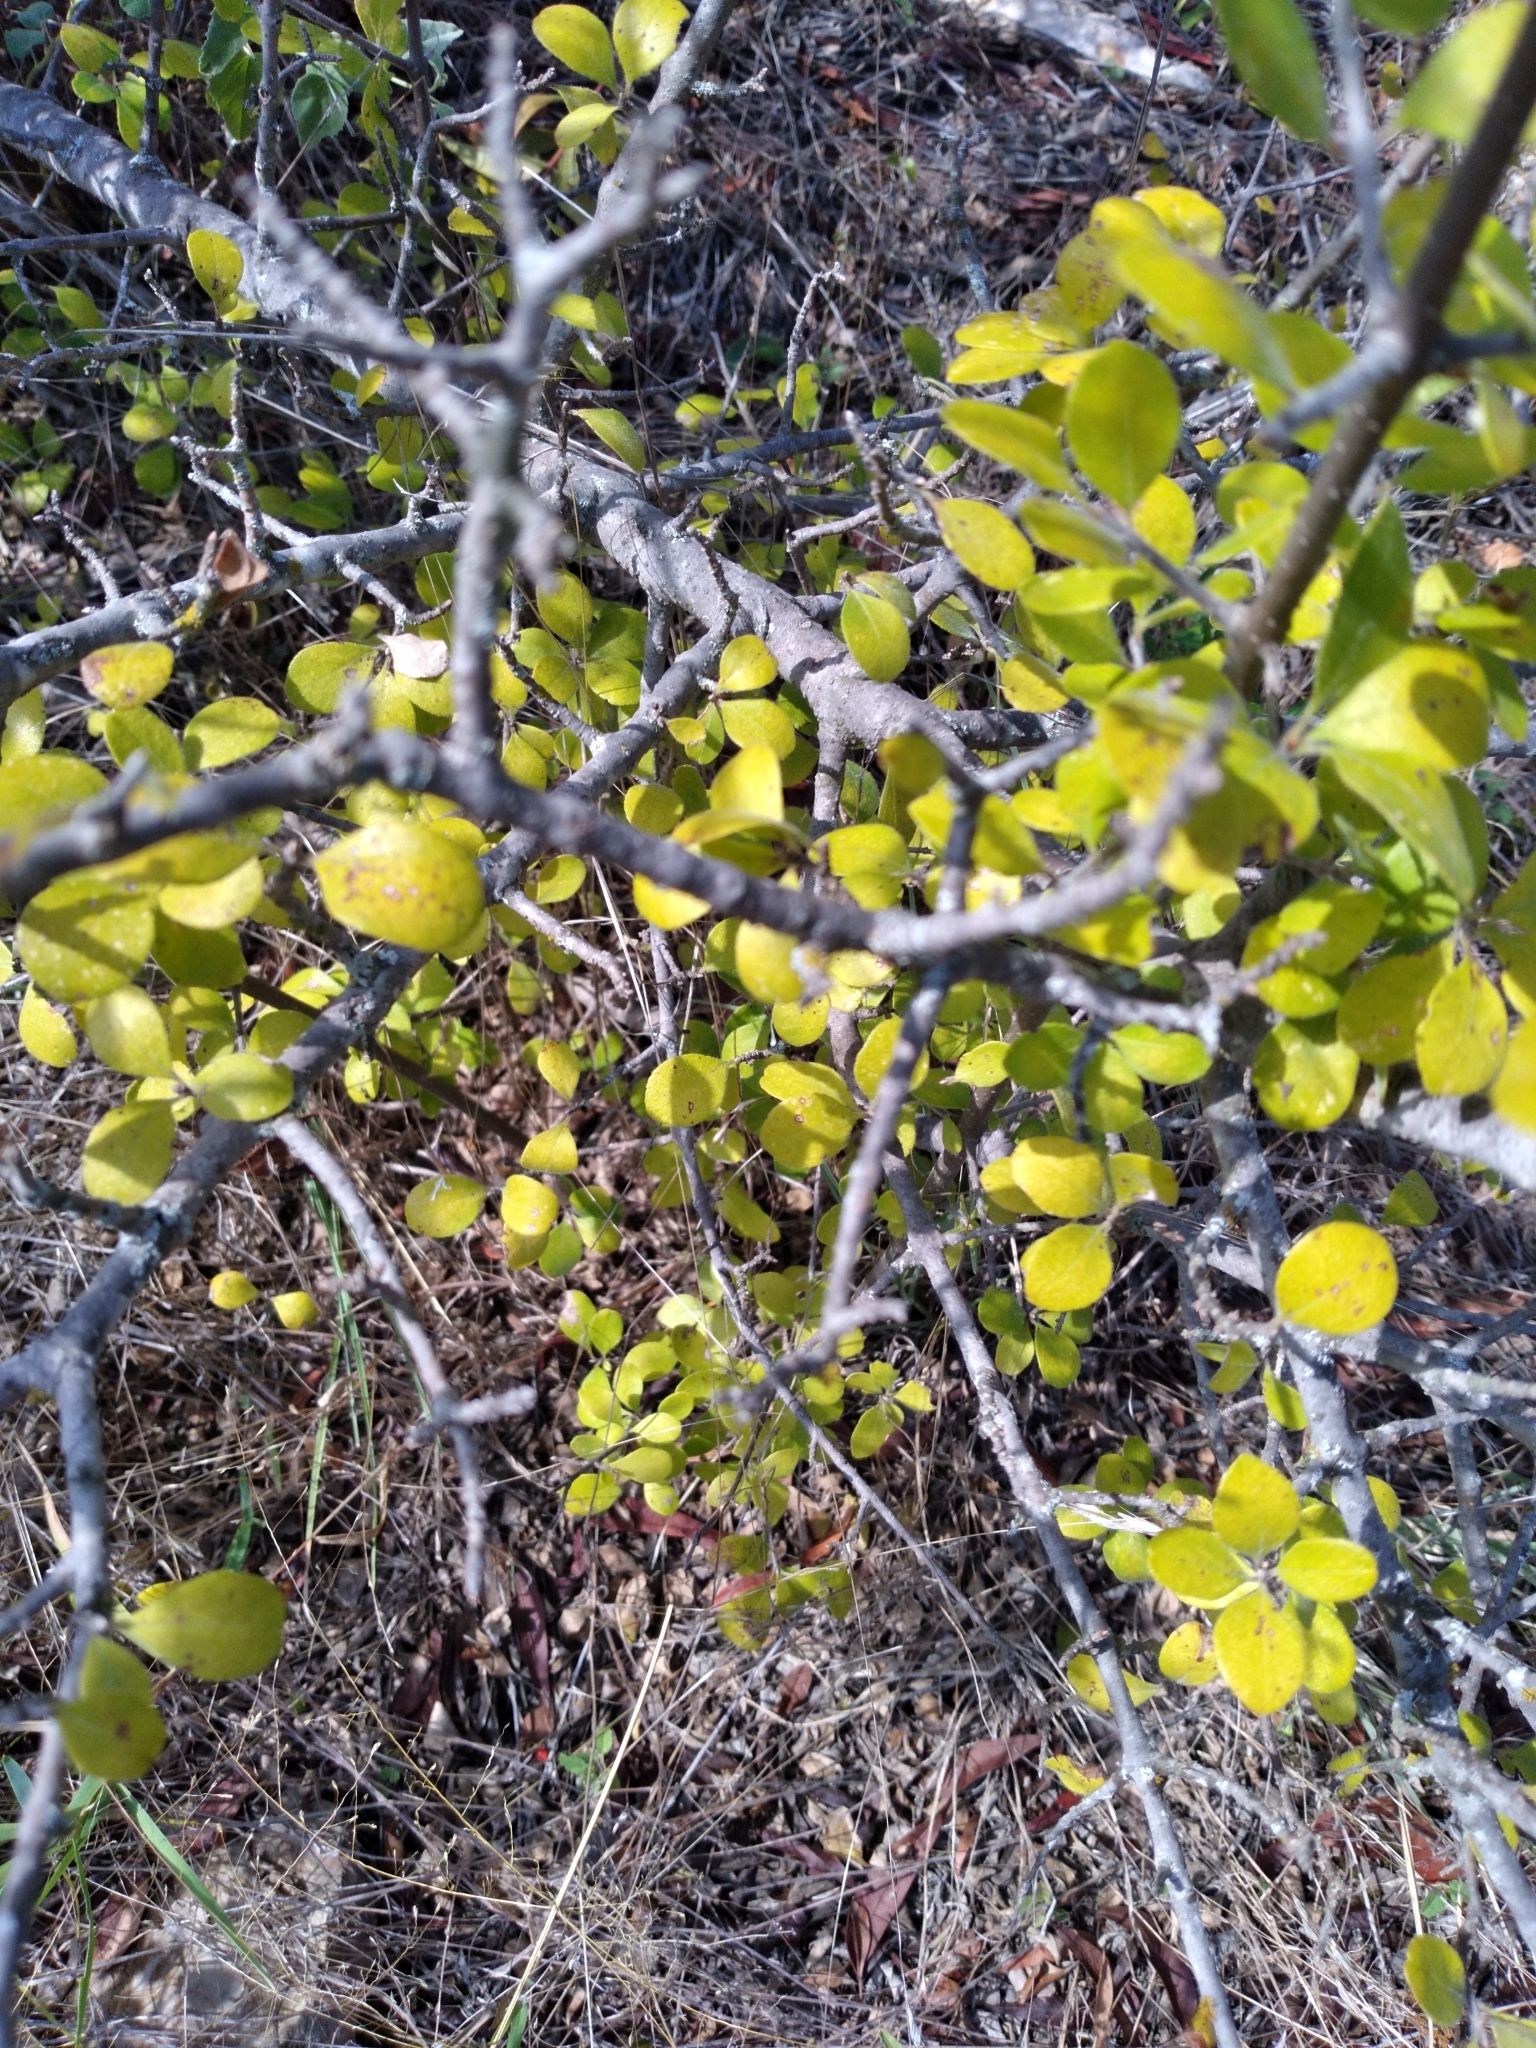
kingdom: Plantae
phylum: Tracheophyta
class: Magnoliopsida
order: Lamiales
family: Oleaceae
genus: Forestiera
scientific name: Forestiera pubescens
